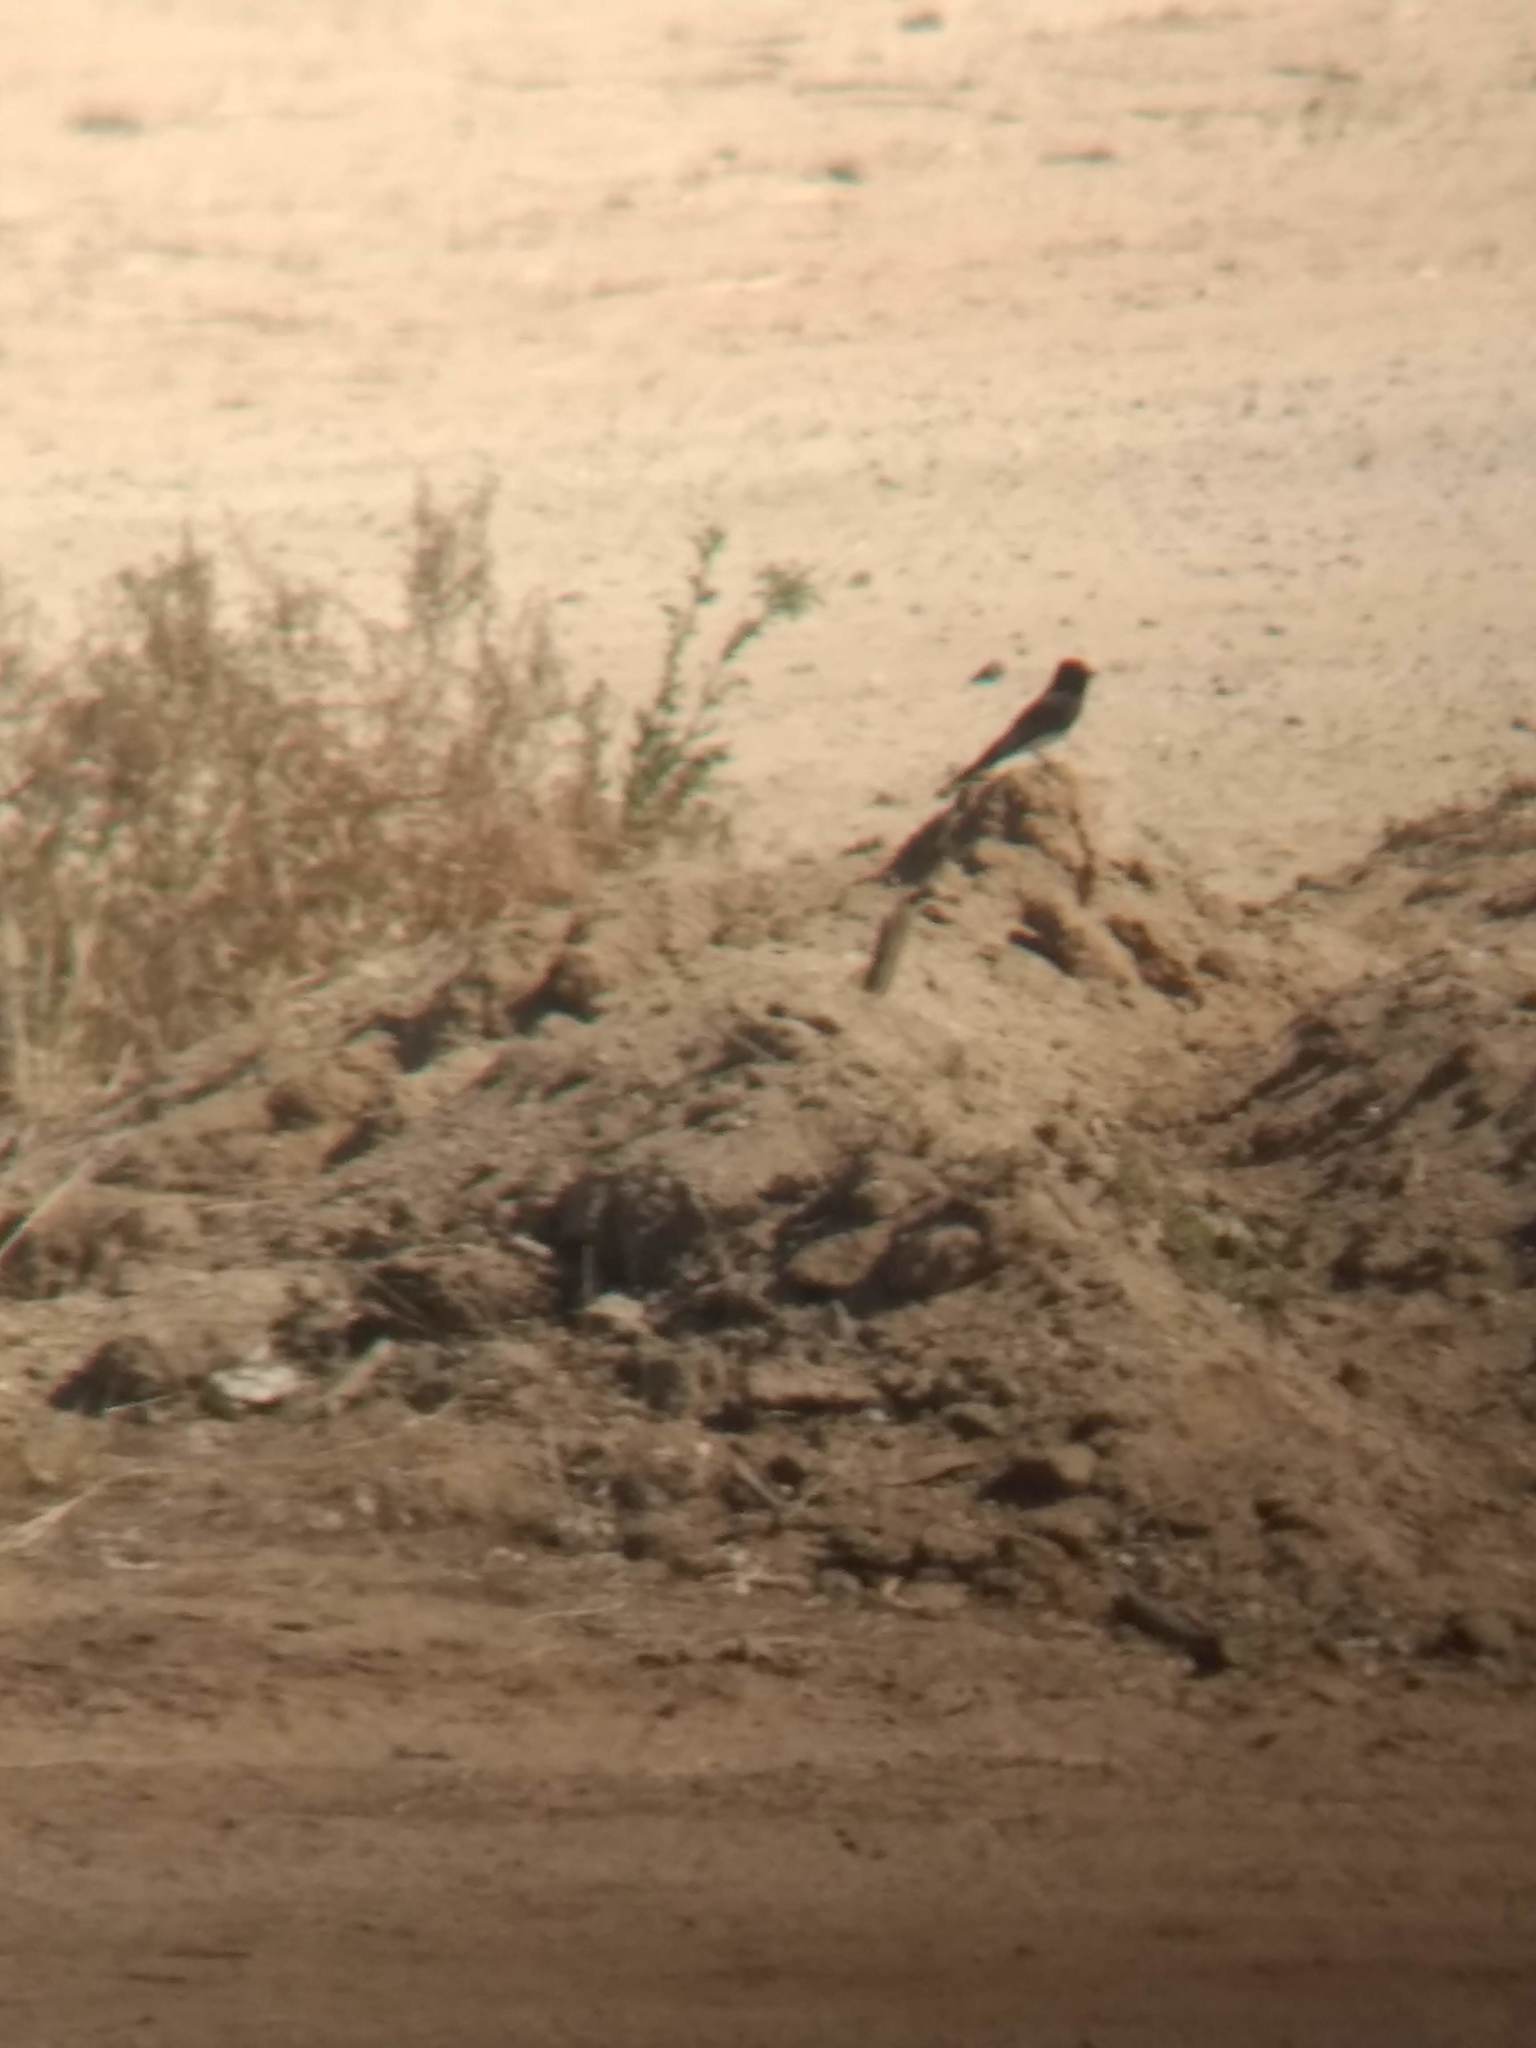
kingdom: Animalia
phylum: Chordata
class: Aves
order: Passeriformes
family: Tyrannidae
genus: Sayornis
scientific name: Sayornis nigricans
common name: Black phoebe
